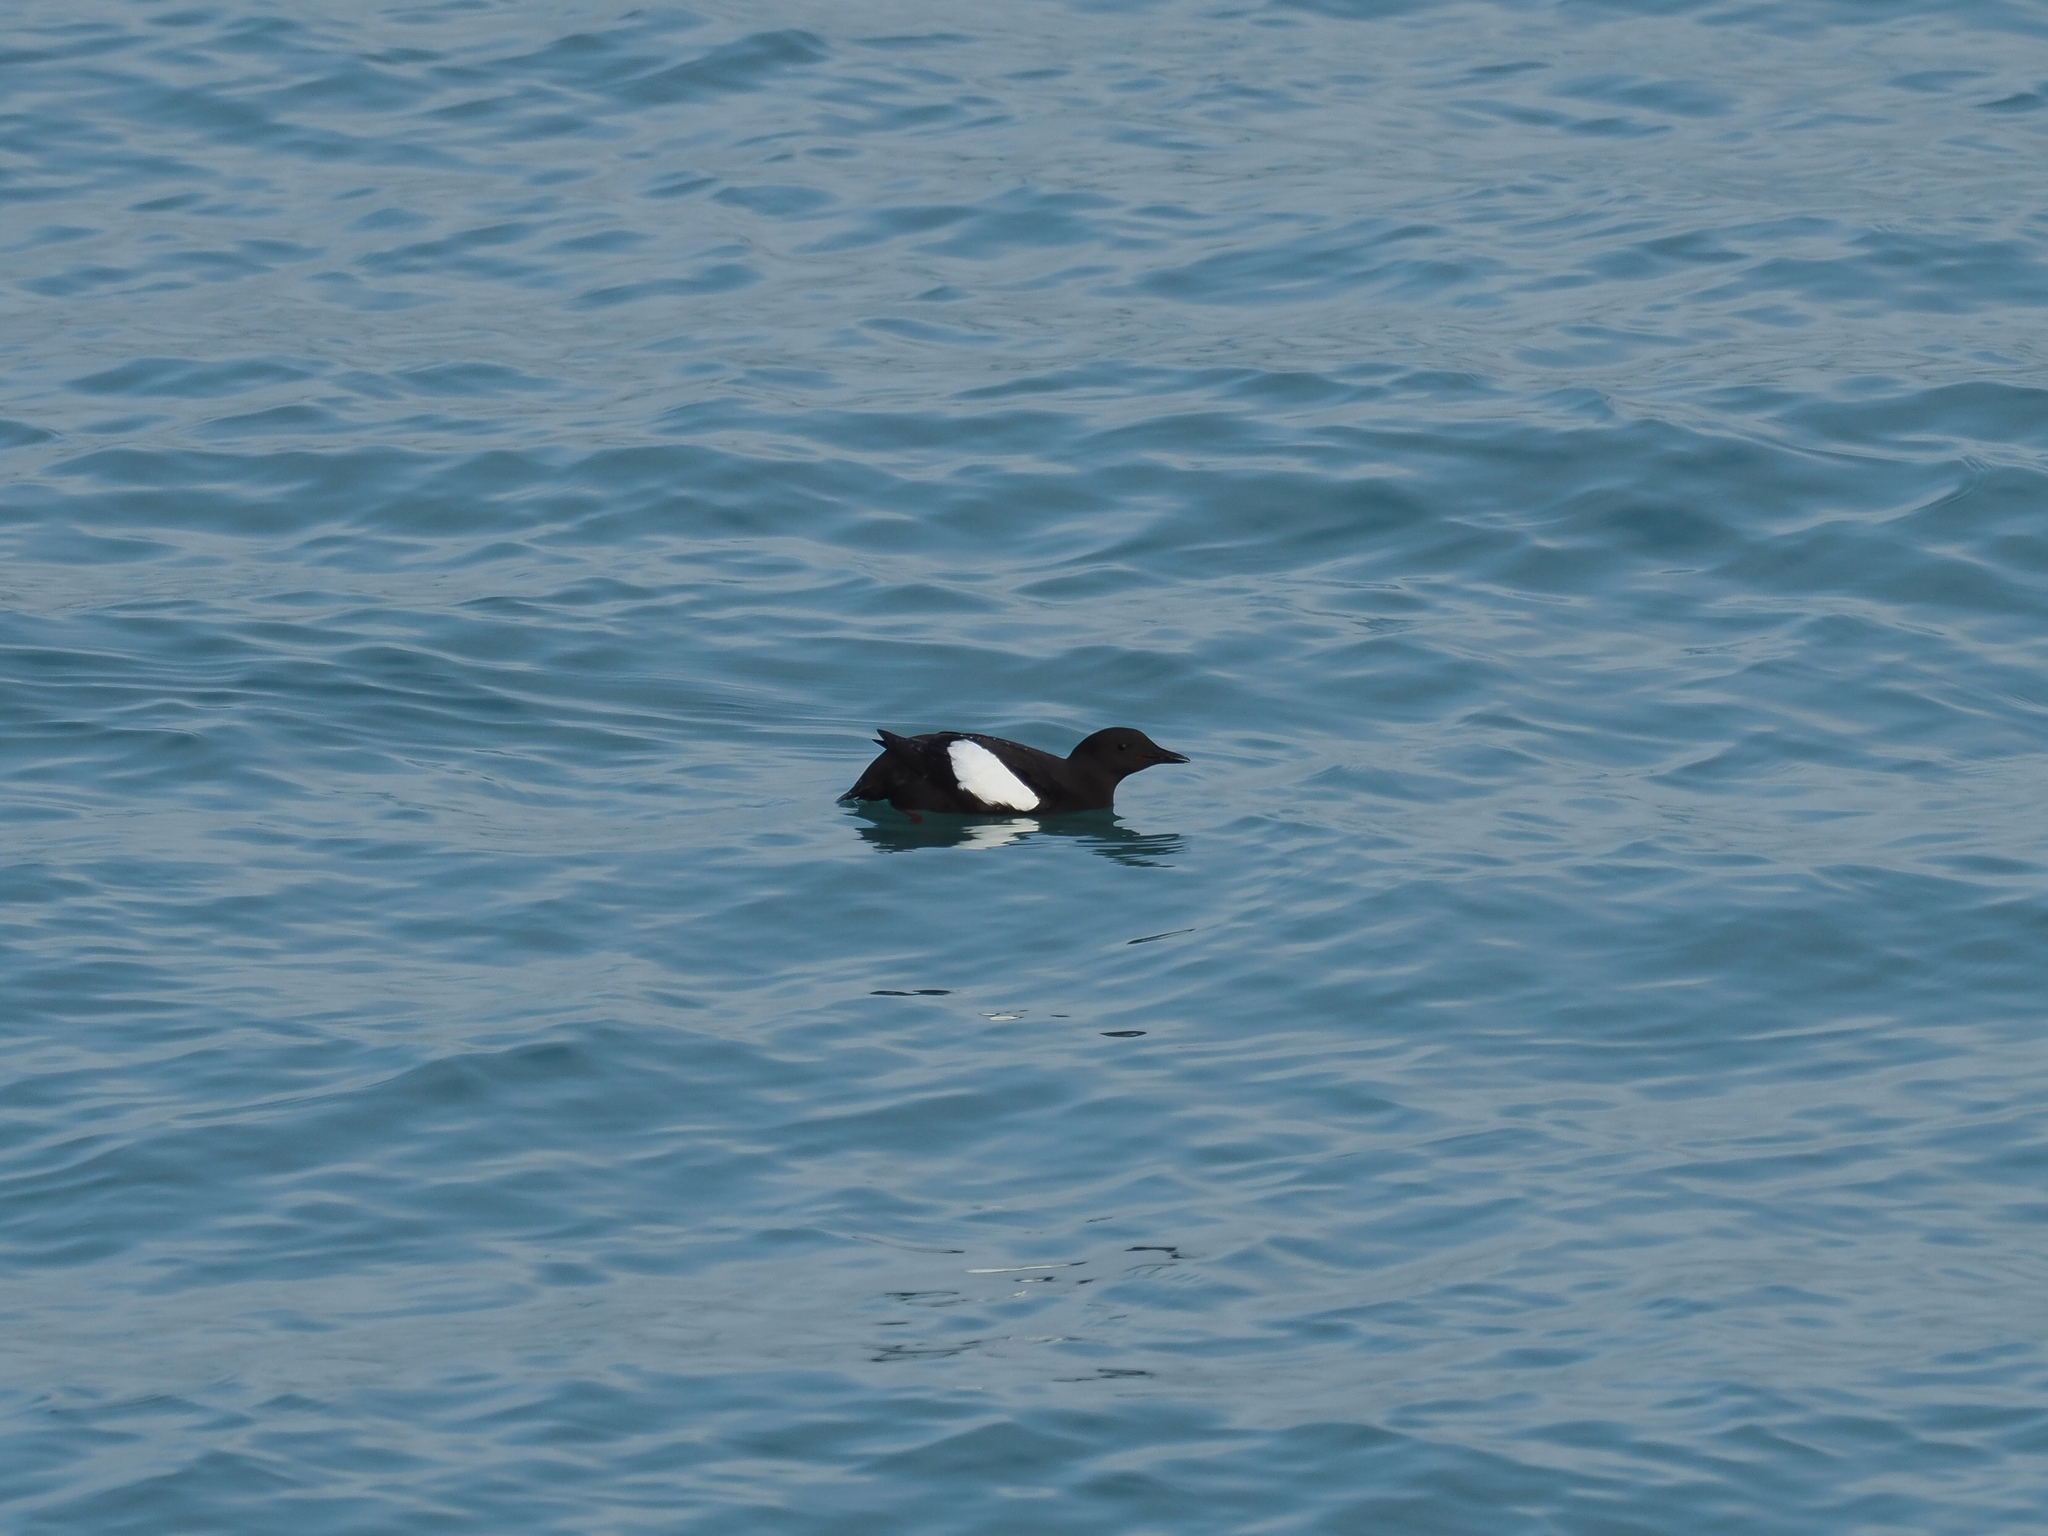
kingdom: Animalia
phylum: Chordata
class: Aves
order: Charadriiformes
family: Alcidae
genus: Cepphus
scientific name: Cepphus grylle
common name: Black guillemot
